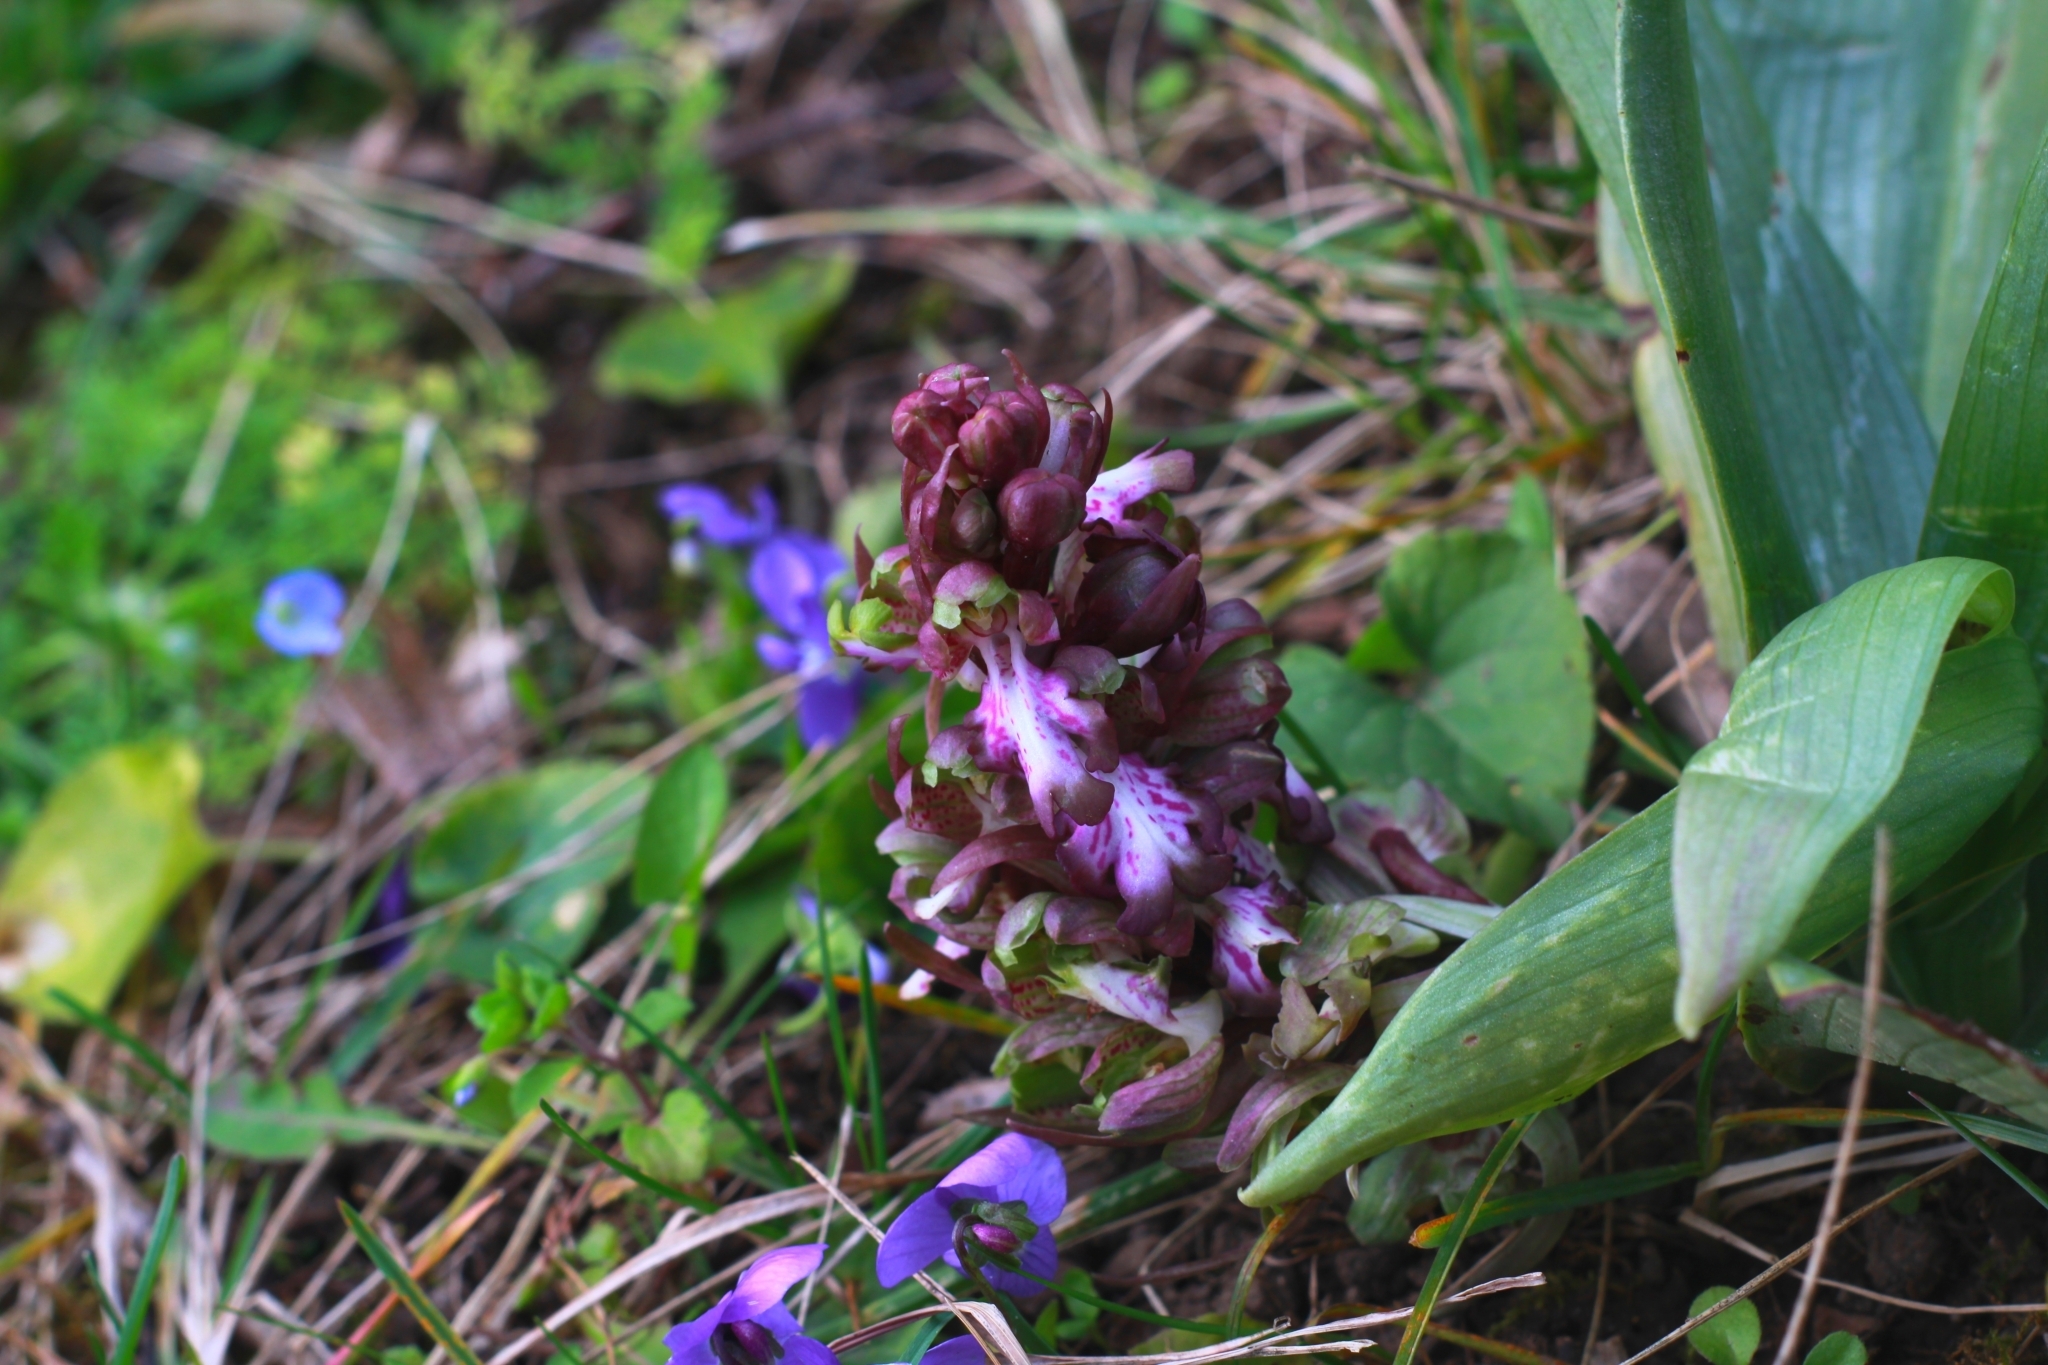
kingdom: Plantae
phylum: Tracheophyta
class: Liliopsida
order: Asparagales
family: Orchidaceae
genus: Himantoglossum
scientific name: Himantoglossum robertianum
